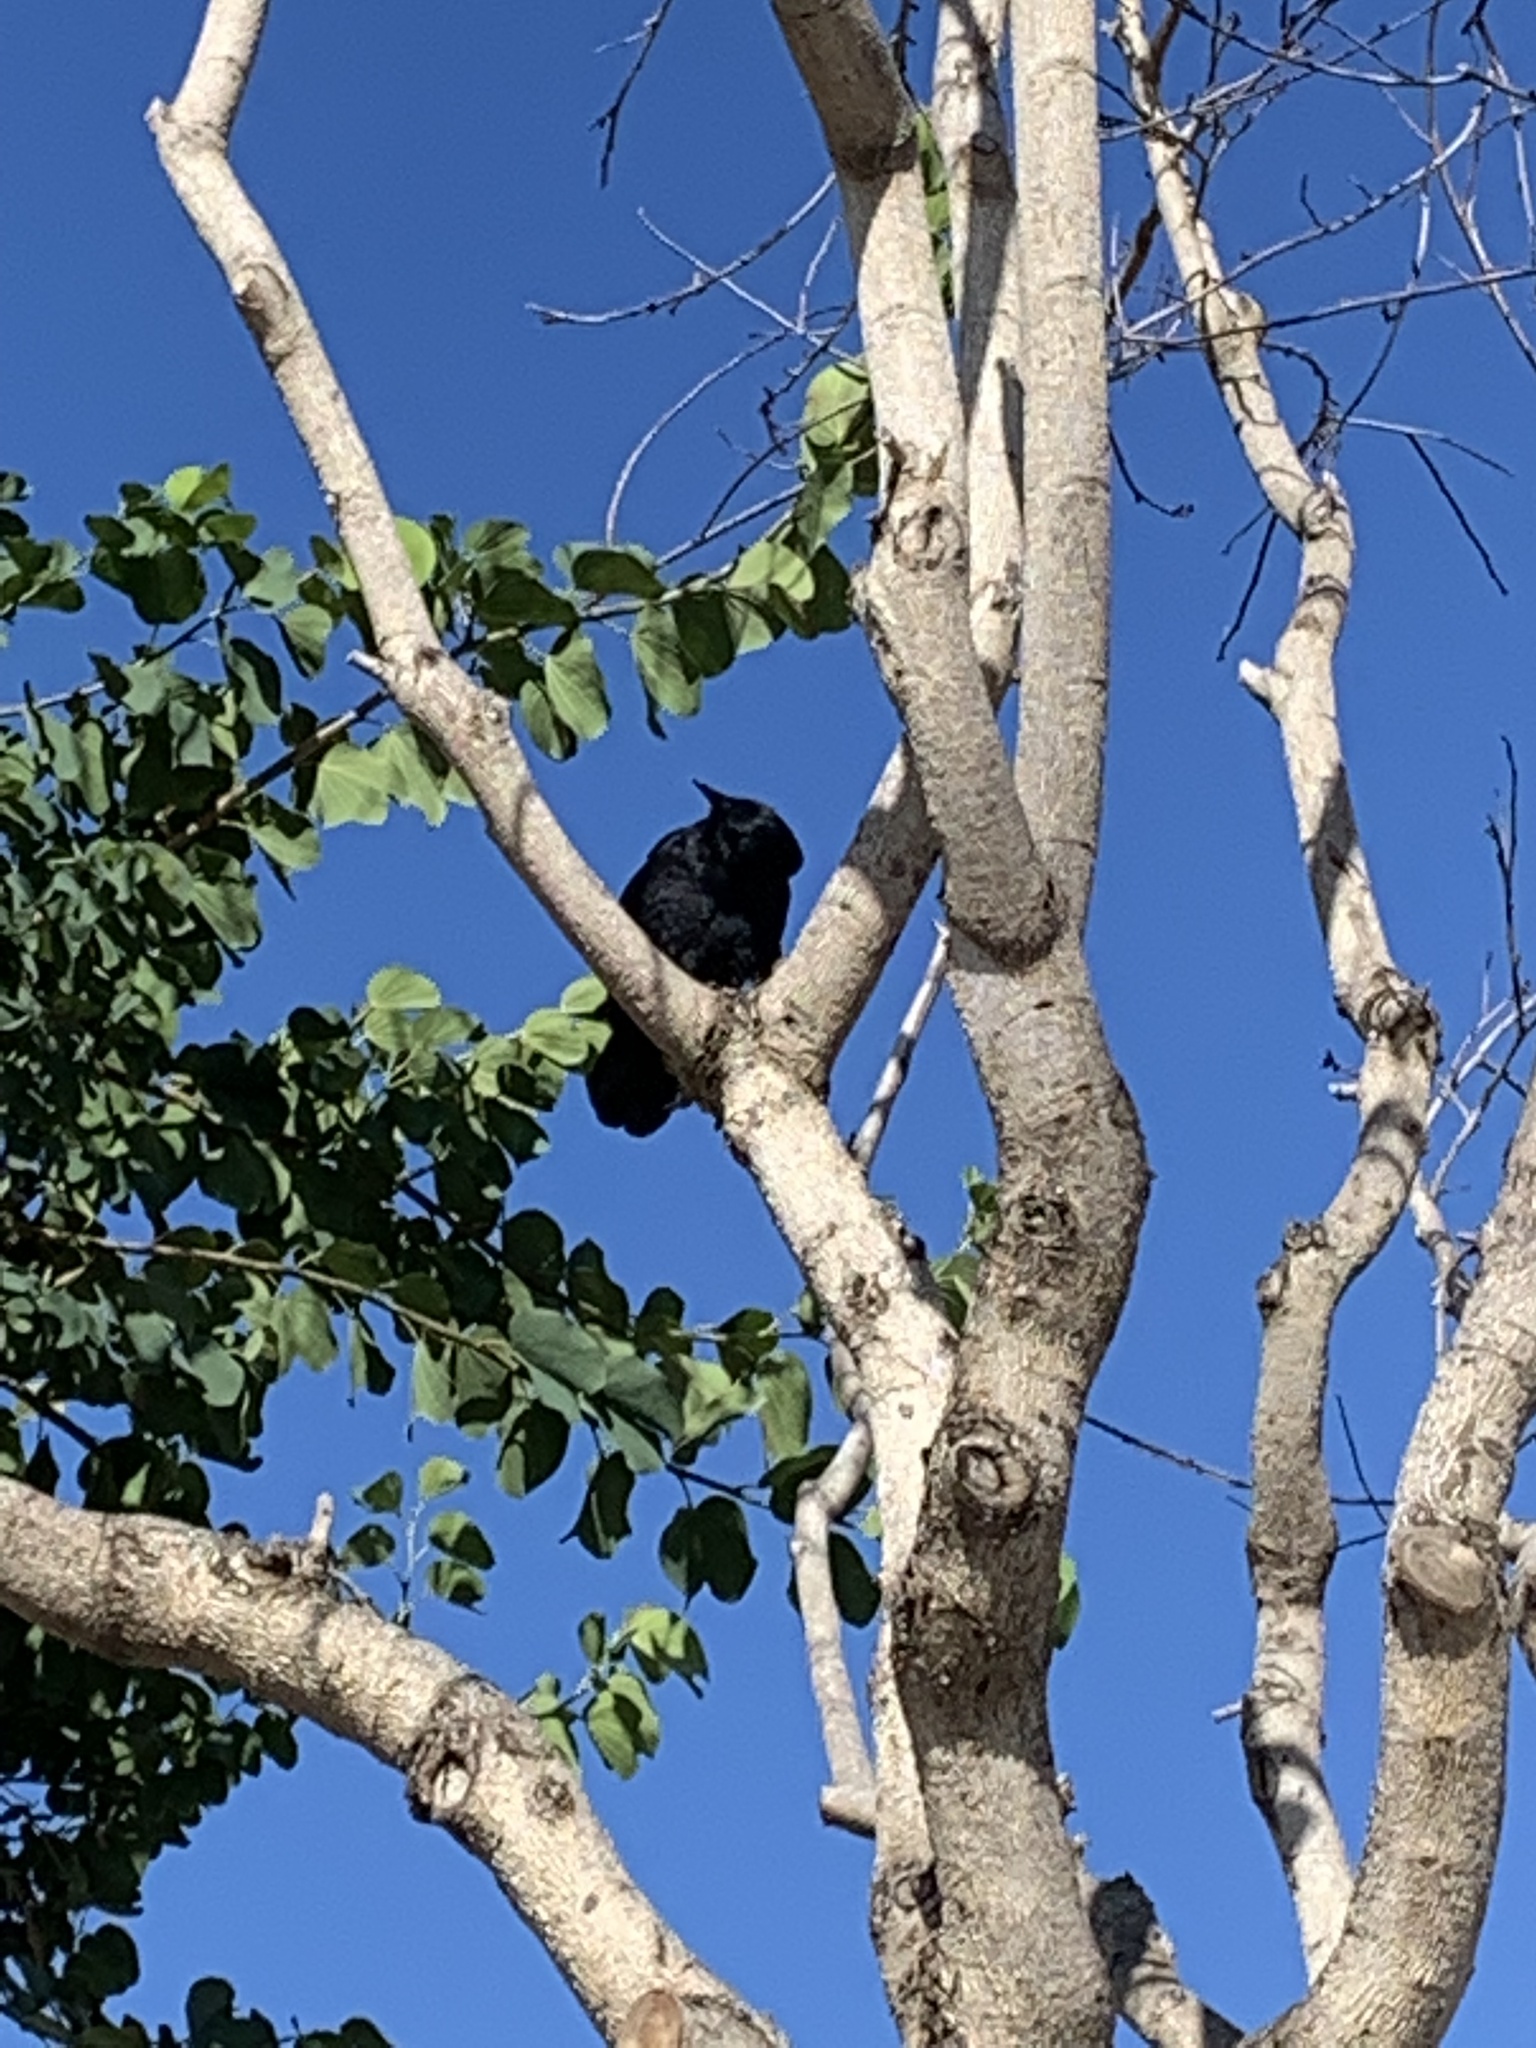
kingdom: Animalia
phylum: Chordata
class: Aves
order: Passeriformes
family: Corvidae
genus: Corvus
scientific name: Corvus brachyrhynchos
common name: American crow
